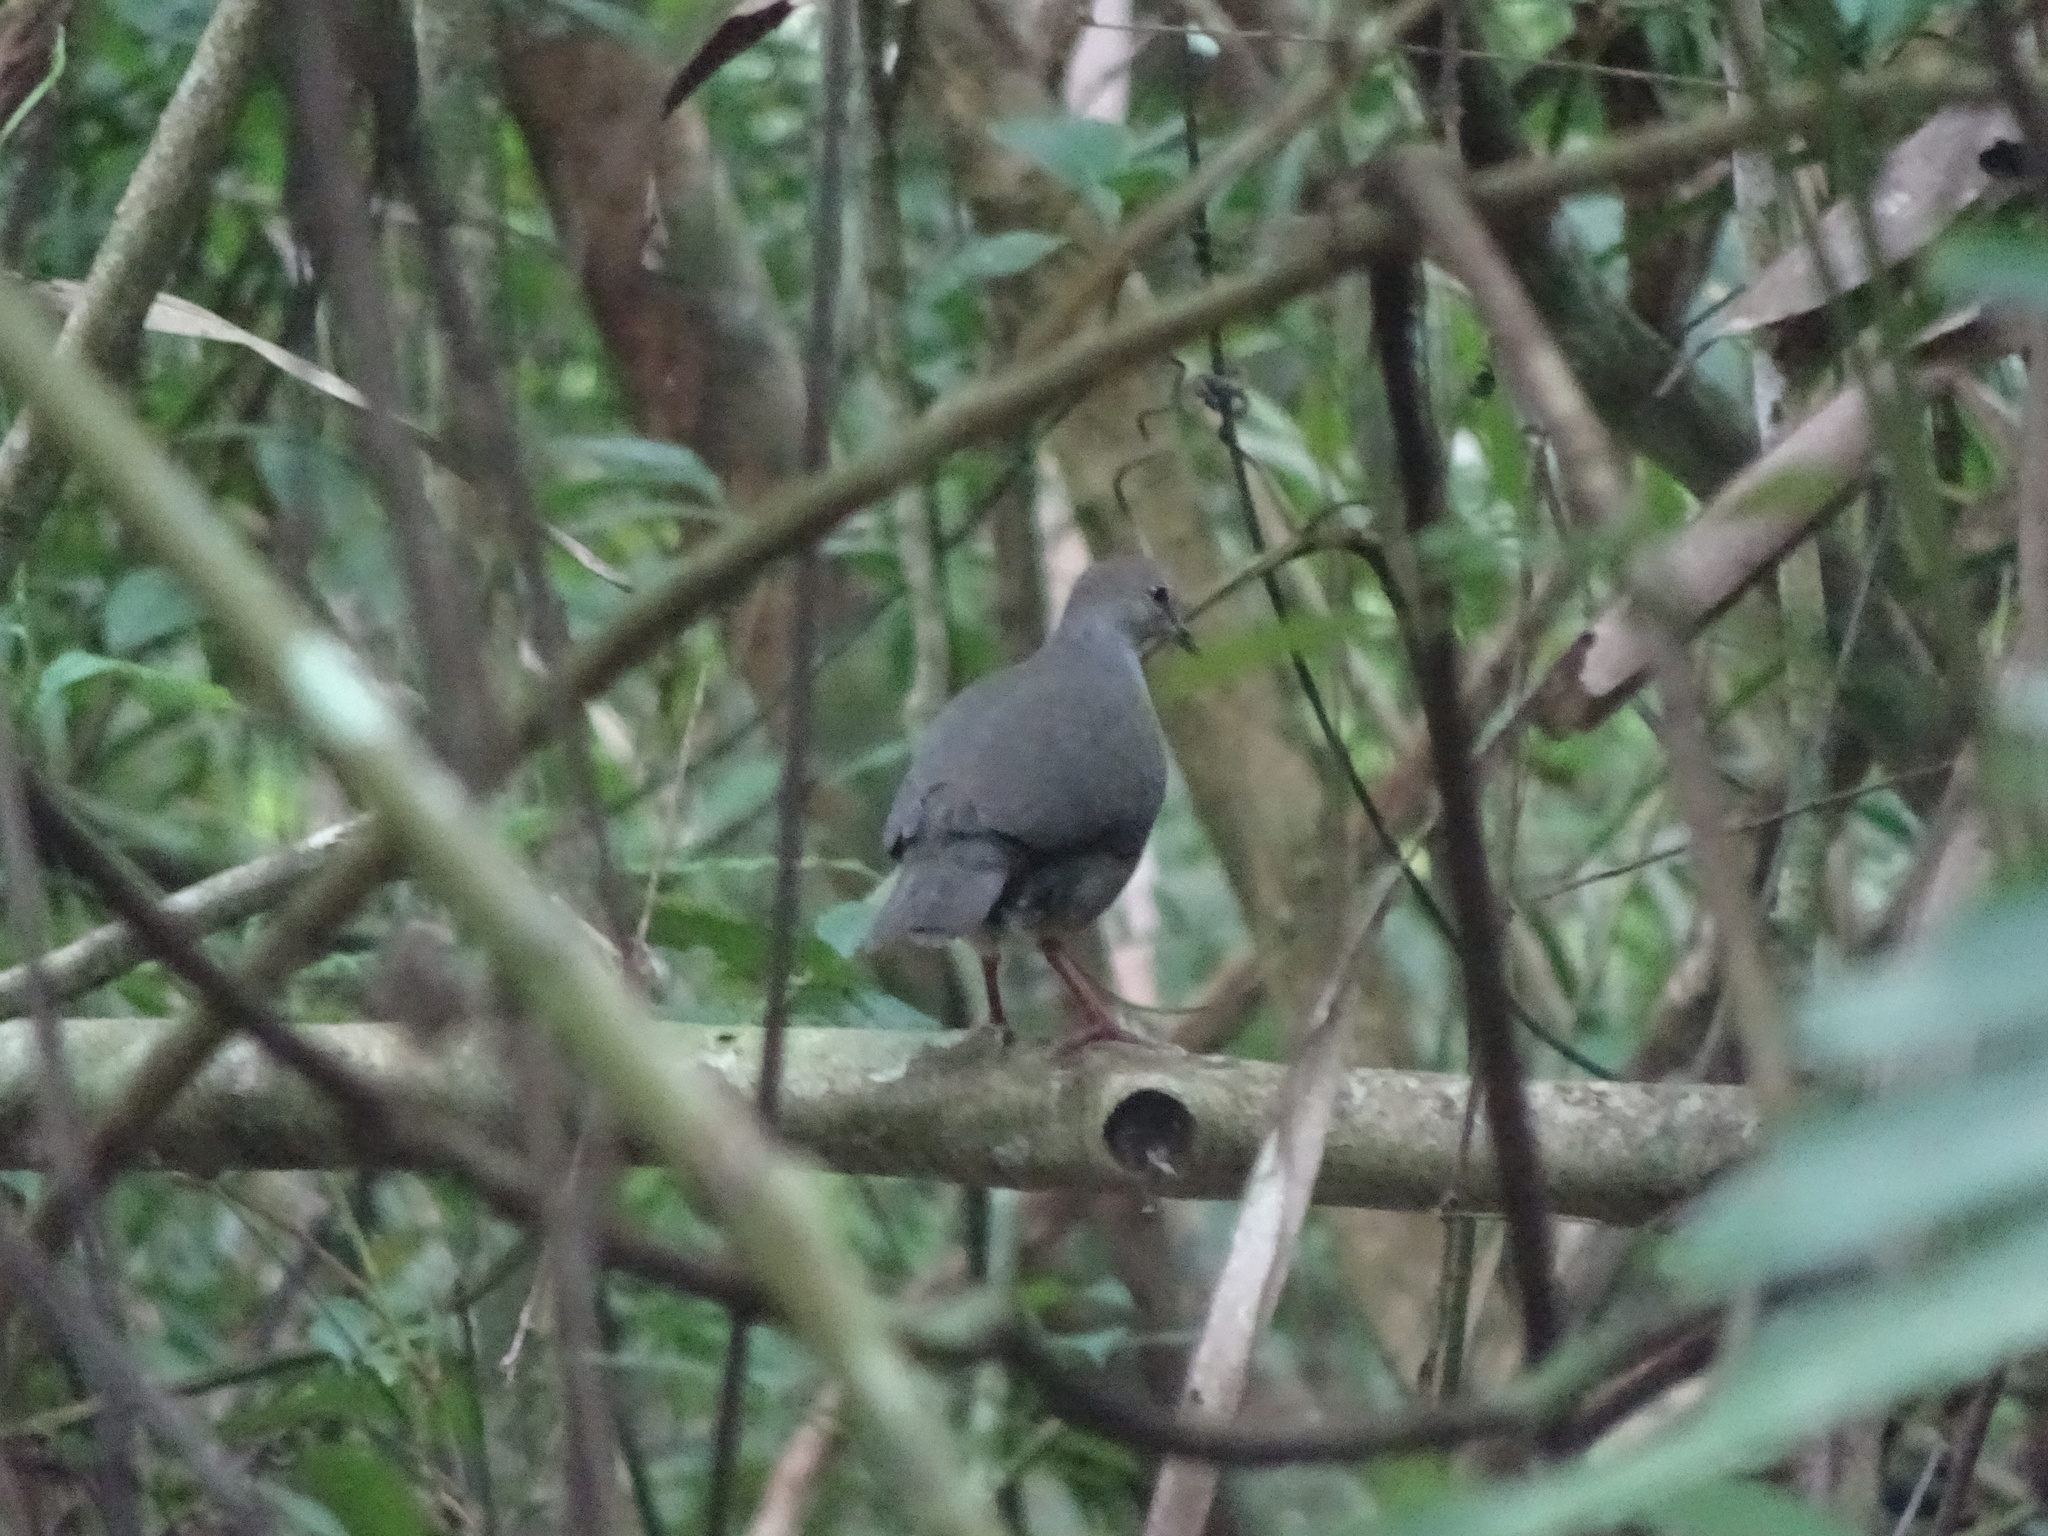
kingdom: Animalia
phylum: Chordata
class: Aves
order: Columbiformes
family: Columbidae
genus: Leptotila
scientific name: Leptotila cassinii
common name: Grey-chested dove
